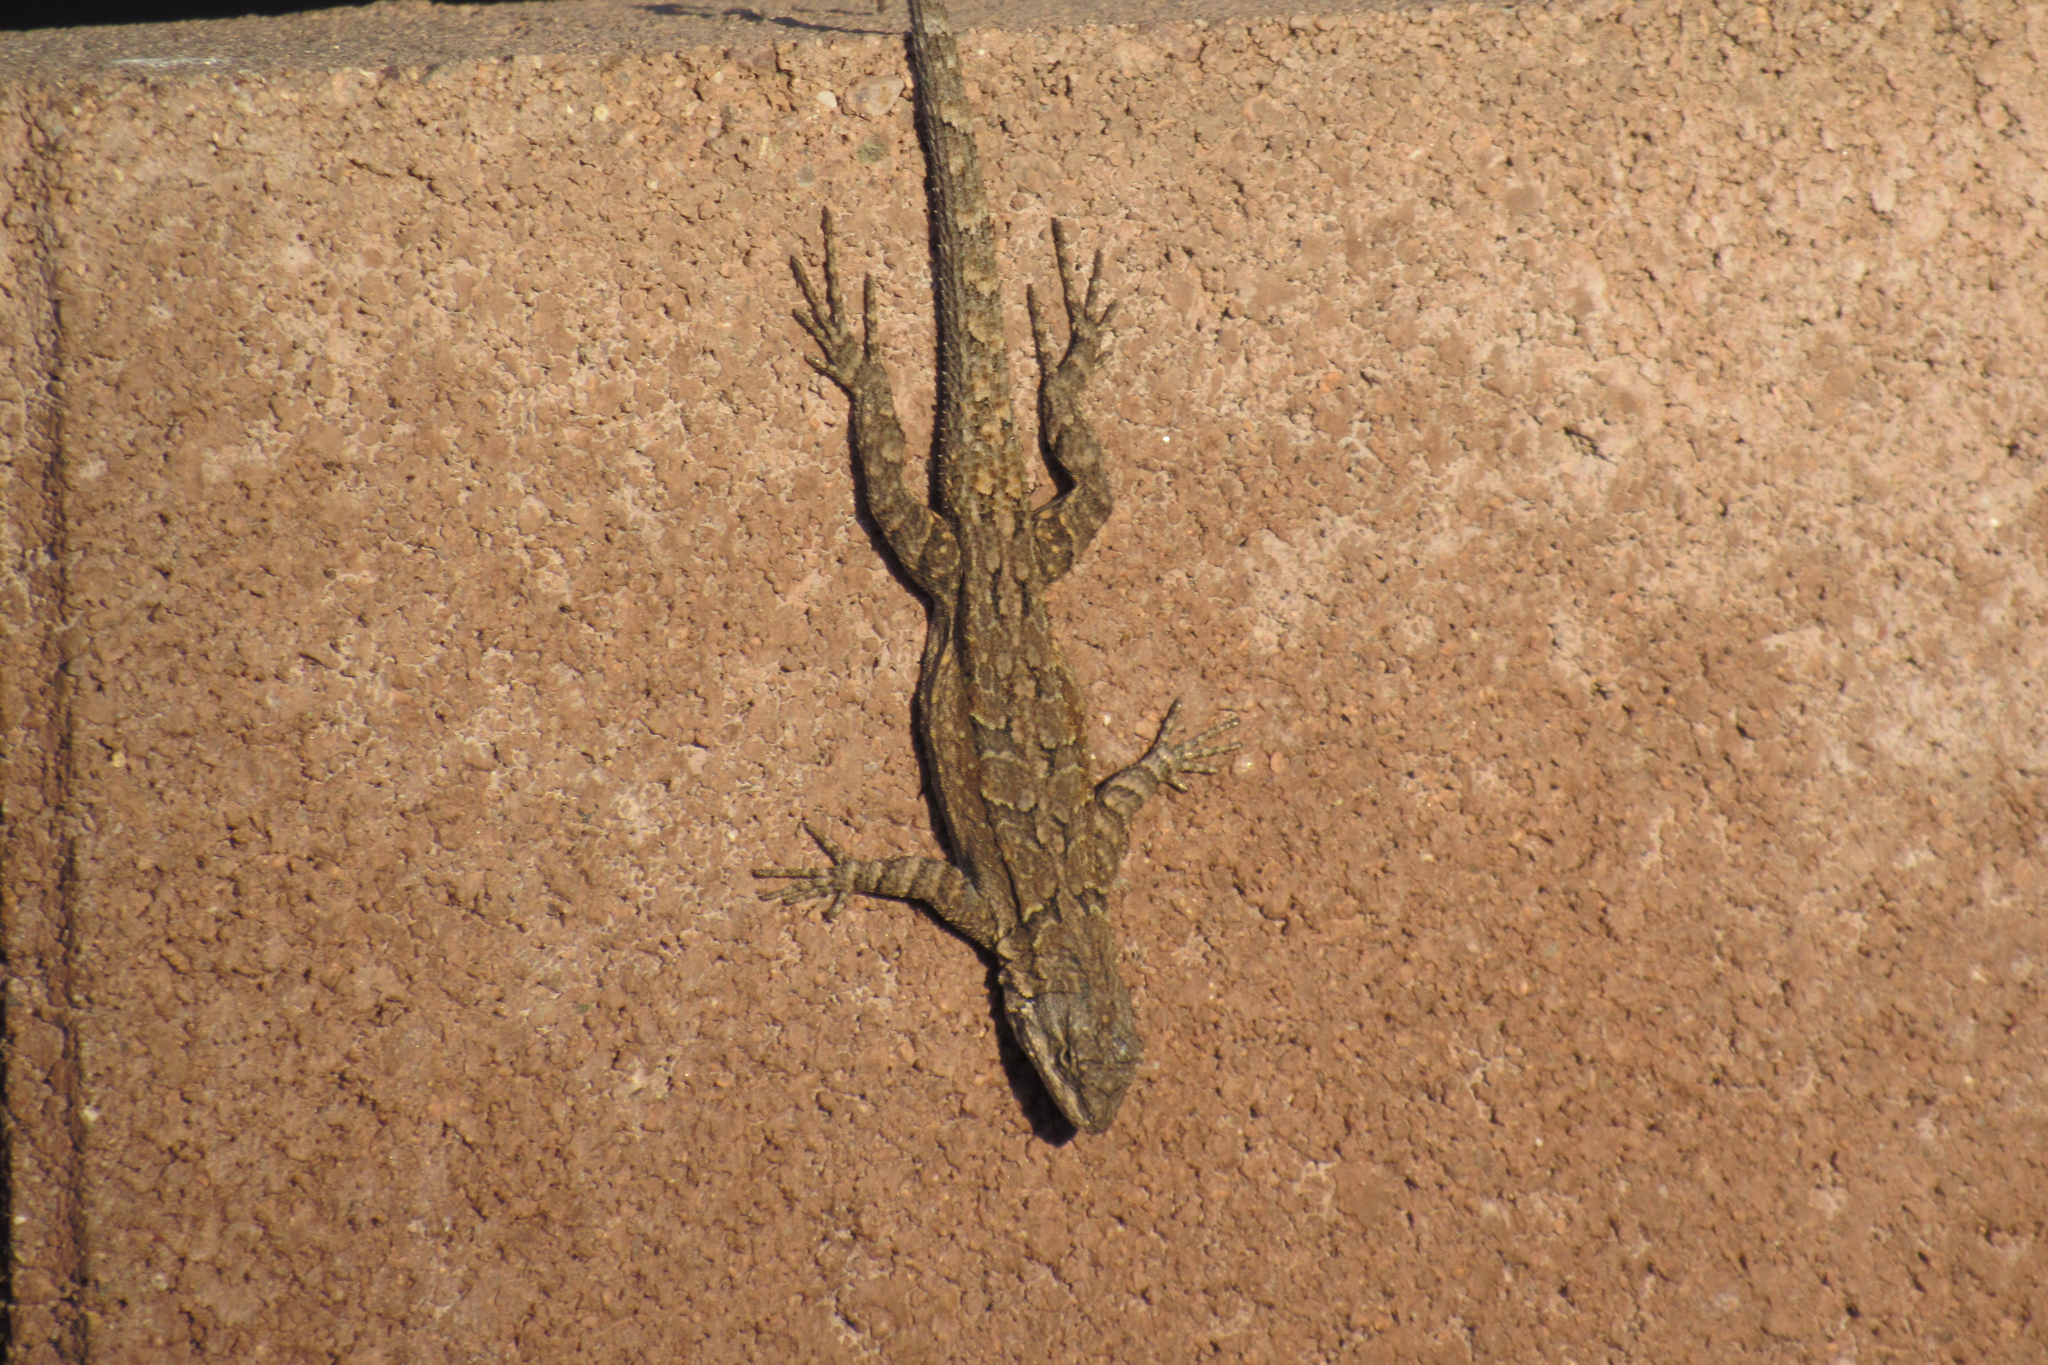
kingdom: Animalia
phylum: Chordata
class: Squamata
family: Phrynosomatidae
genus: Urosaurus
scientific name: Urosaurus ornatus
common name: Ornate tree lizard
